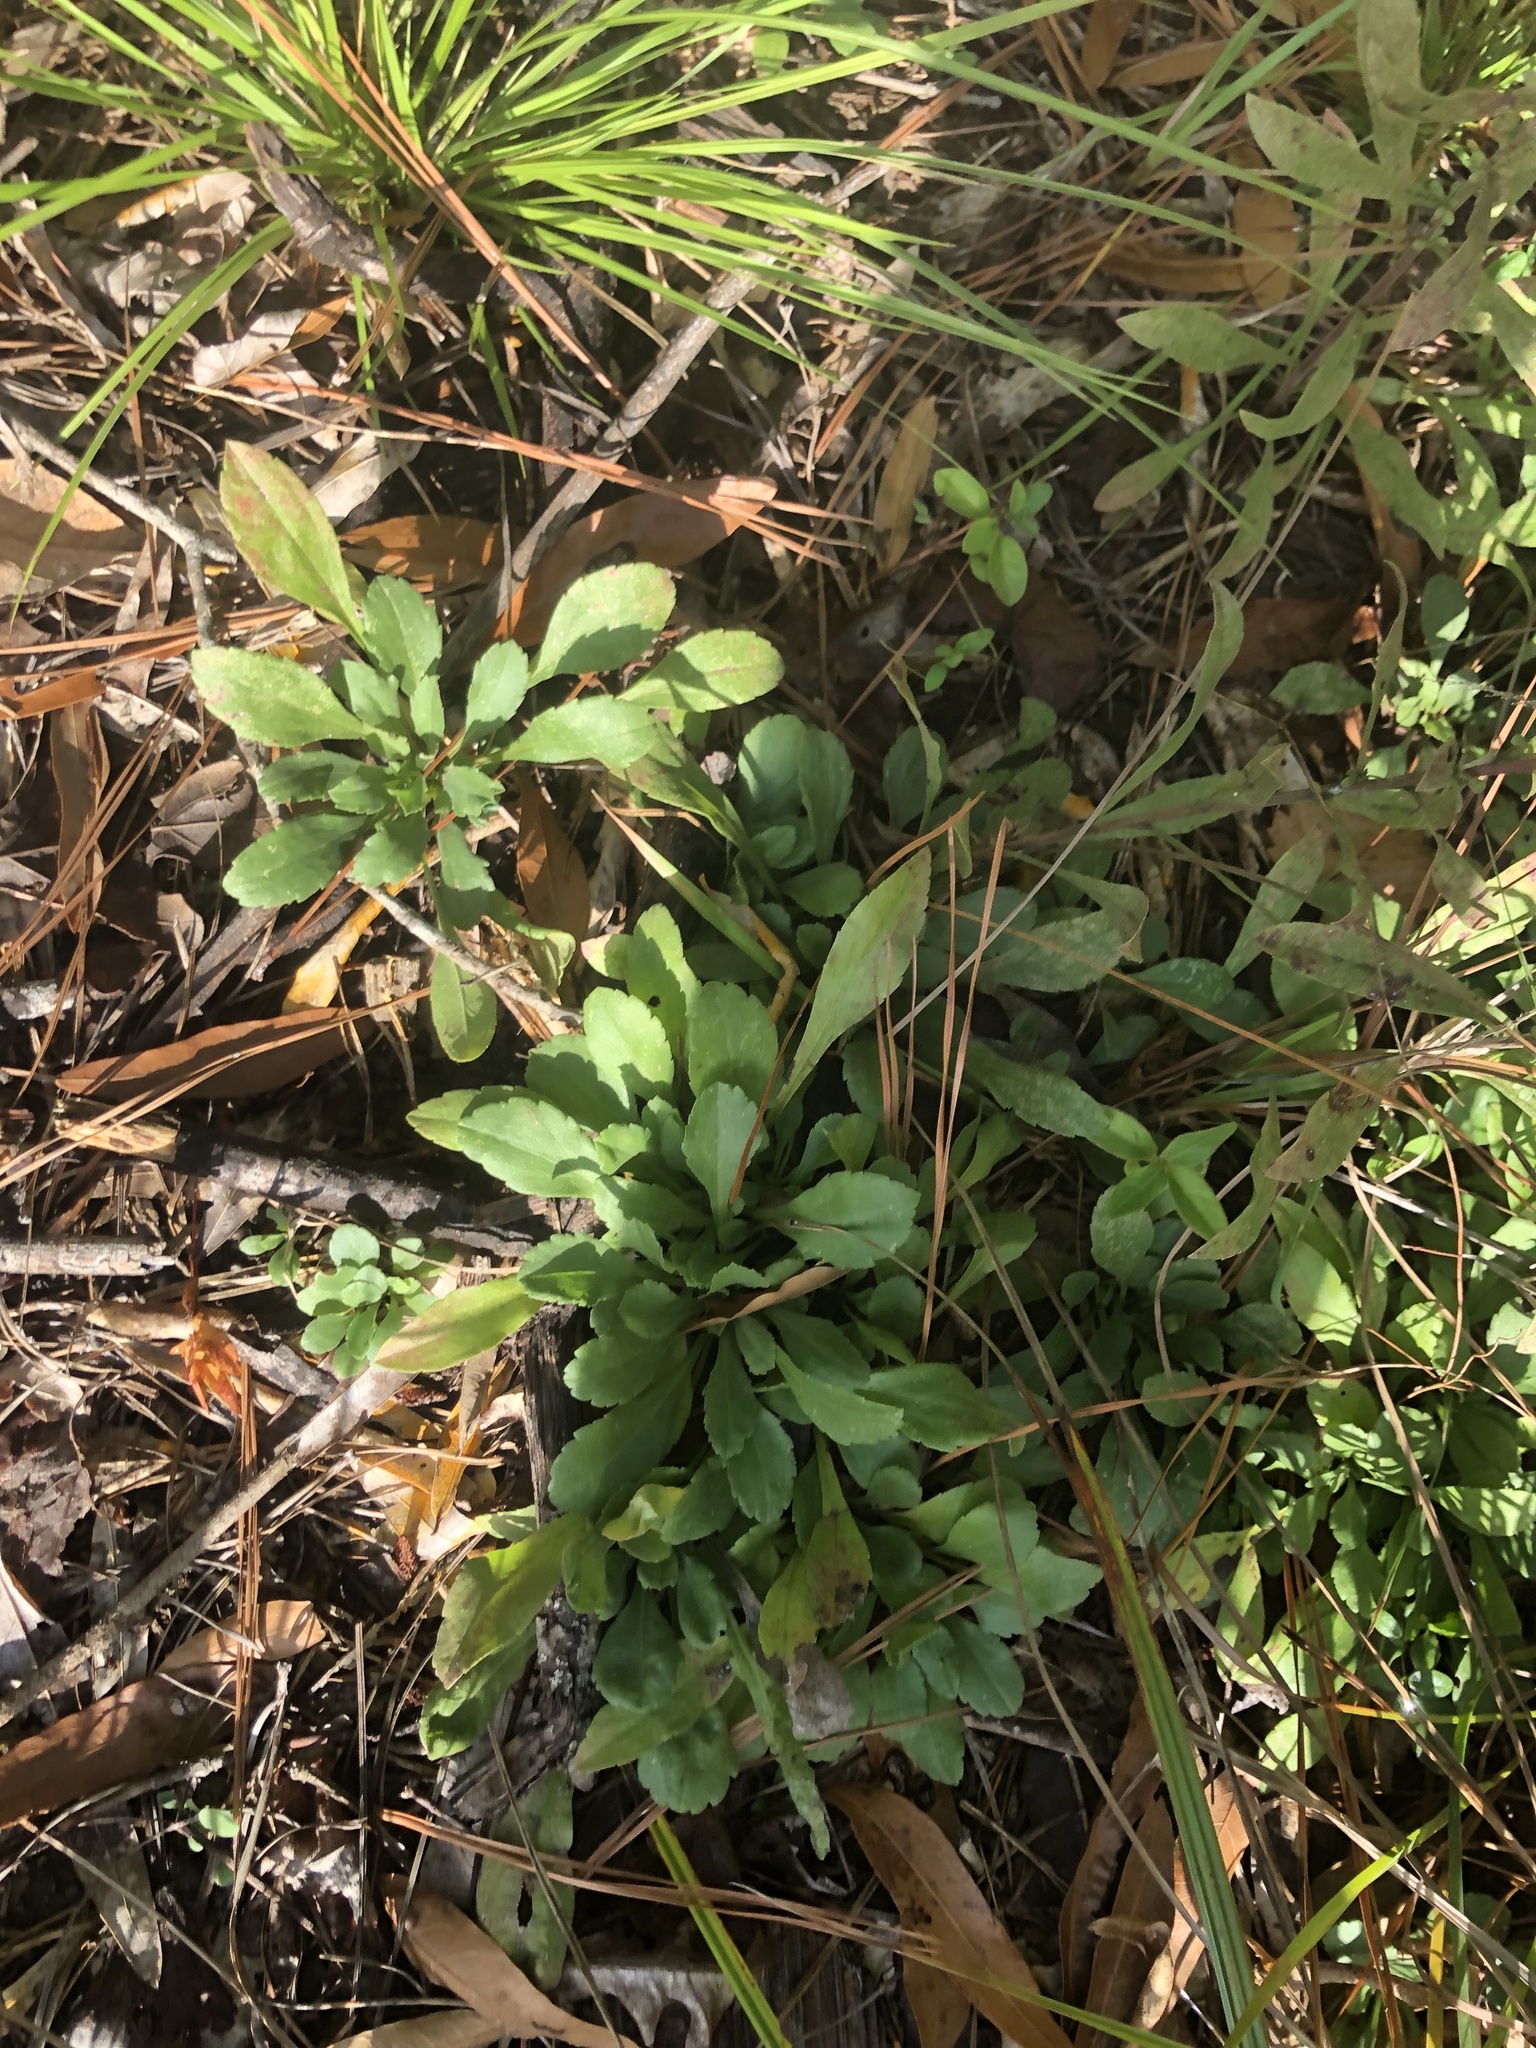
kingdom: Plantae
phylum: Tracheophyta
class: Magnoliopsida
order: Asterales
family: Asteraceae
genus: Solidago
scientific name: Solidago nemoralis
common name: Grey goldenrod
